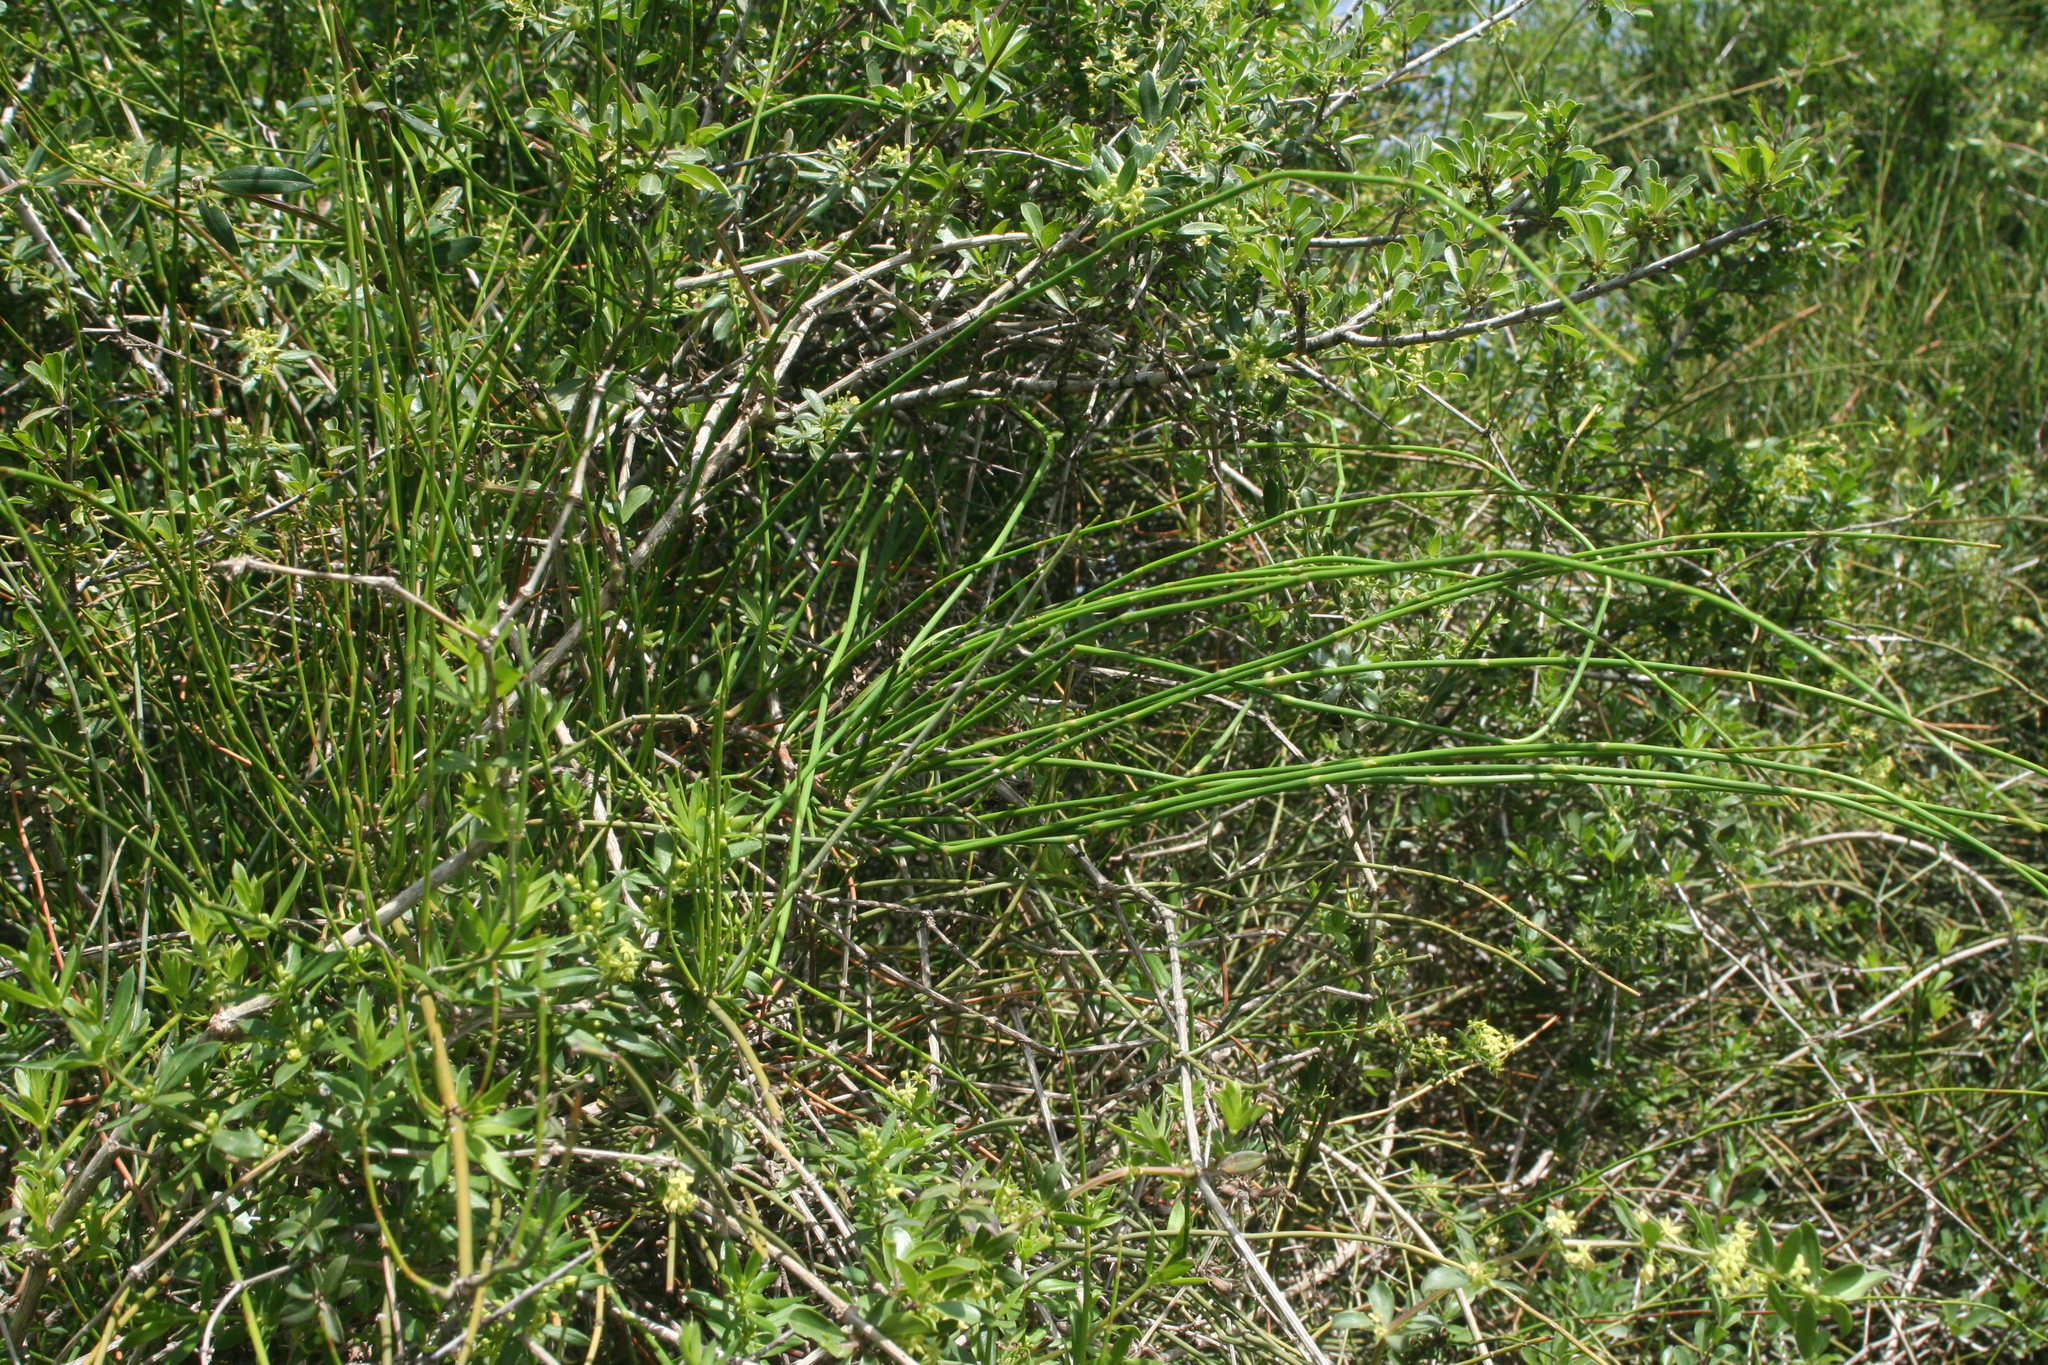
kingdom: Plantae
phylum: Tracheophyta
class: Gnetopsida
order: Ephedrales
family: Ephedraceae
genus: Ephedra
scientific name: Ephedra foeminea
